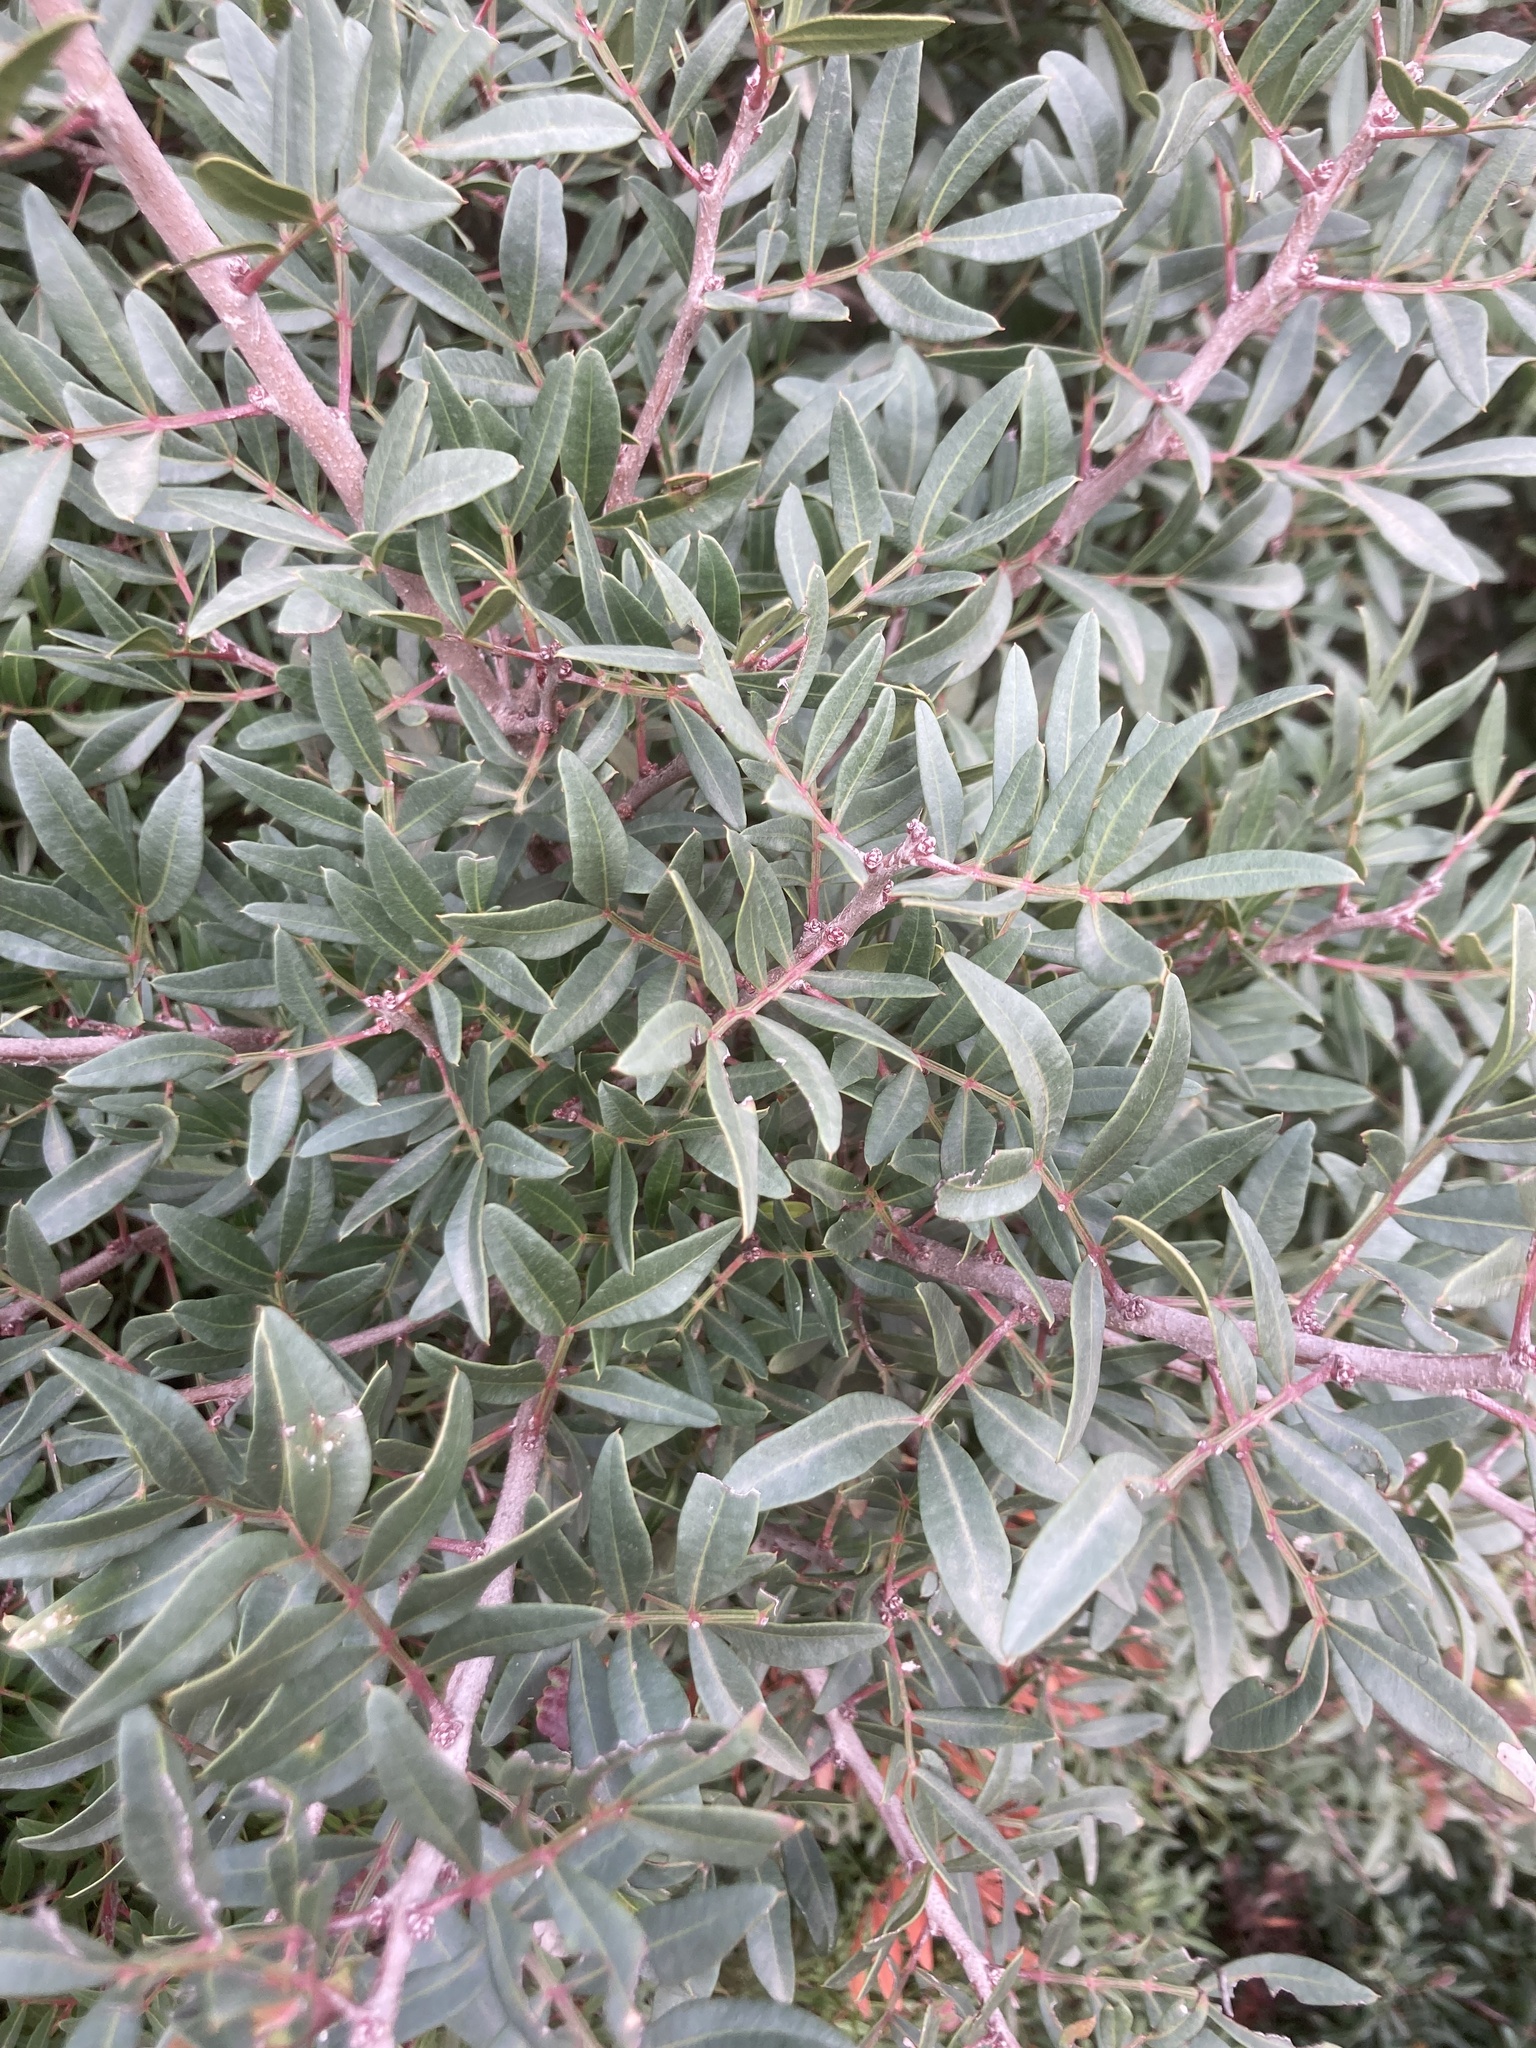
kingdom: Plantae
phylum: Tracheophyta
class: Magnoliopsida
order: Sapindales
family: Anacardiaceae
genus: Pistacia
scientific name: Pistacia lentiscus
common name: Lentisk
